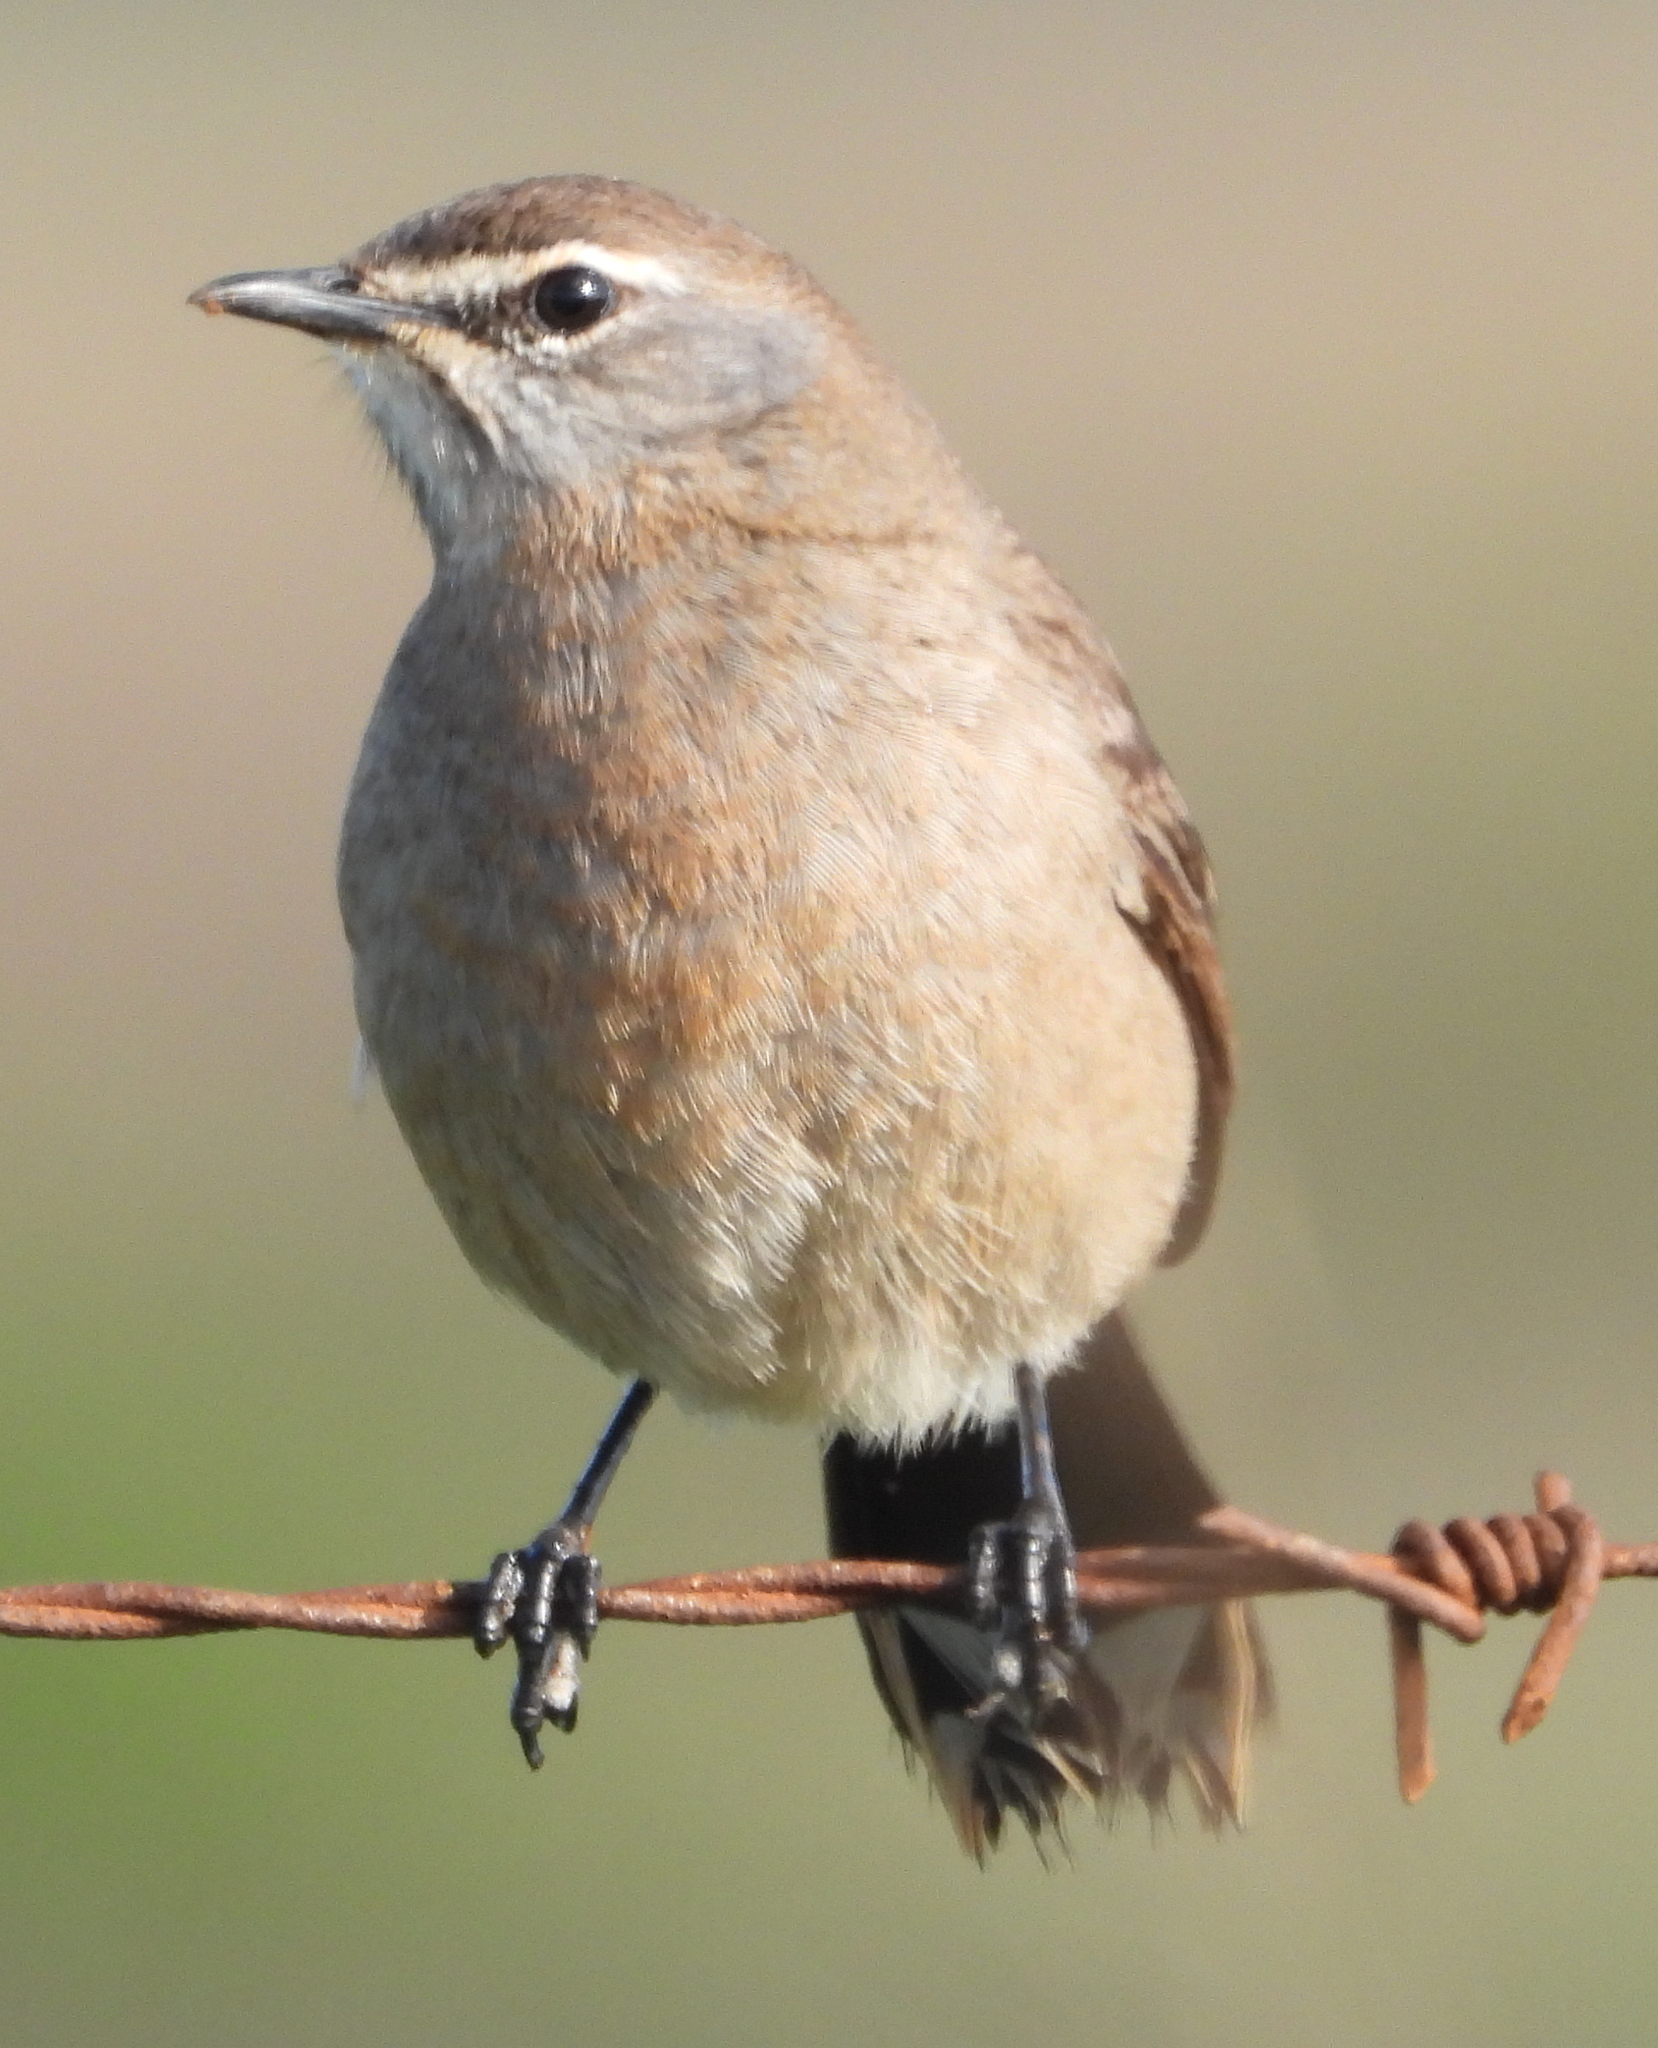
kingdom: Animalia
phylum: Chordata
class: Aves
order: Passeriformes
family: Muscicapidae
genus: Erythropygia
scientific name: Erythropygia coryphoeus
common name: Karoo scrub robin
